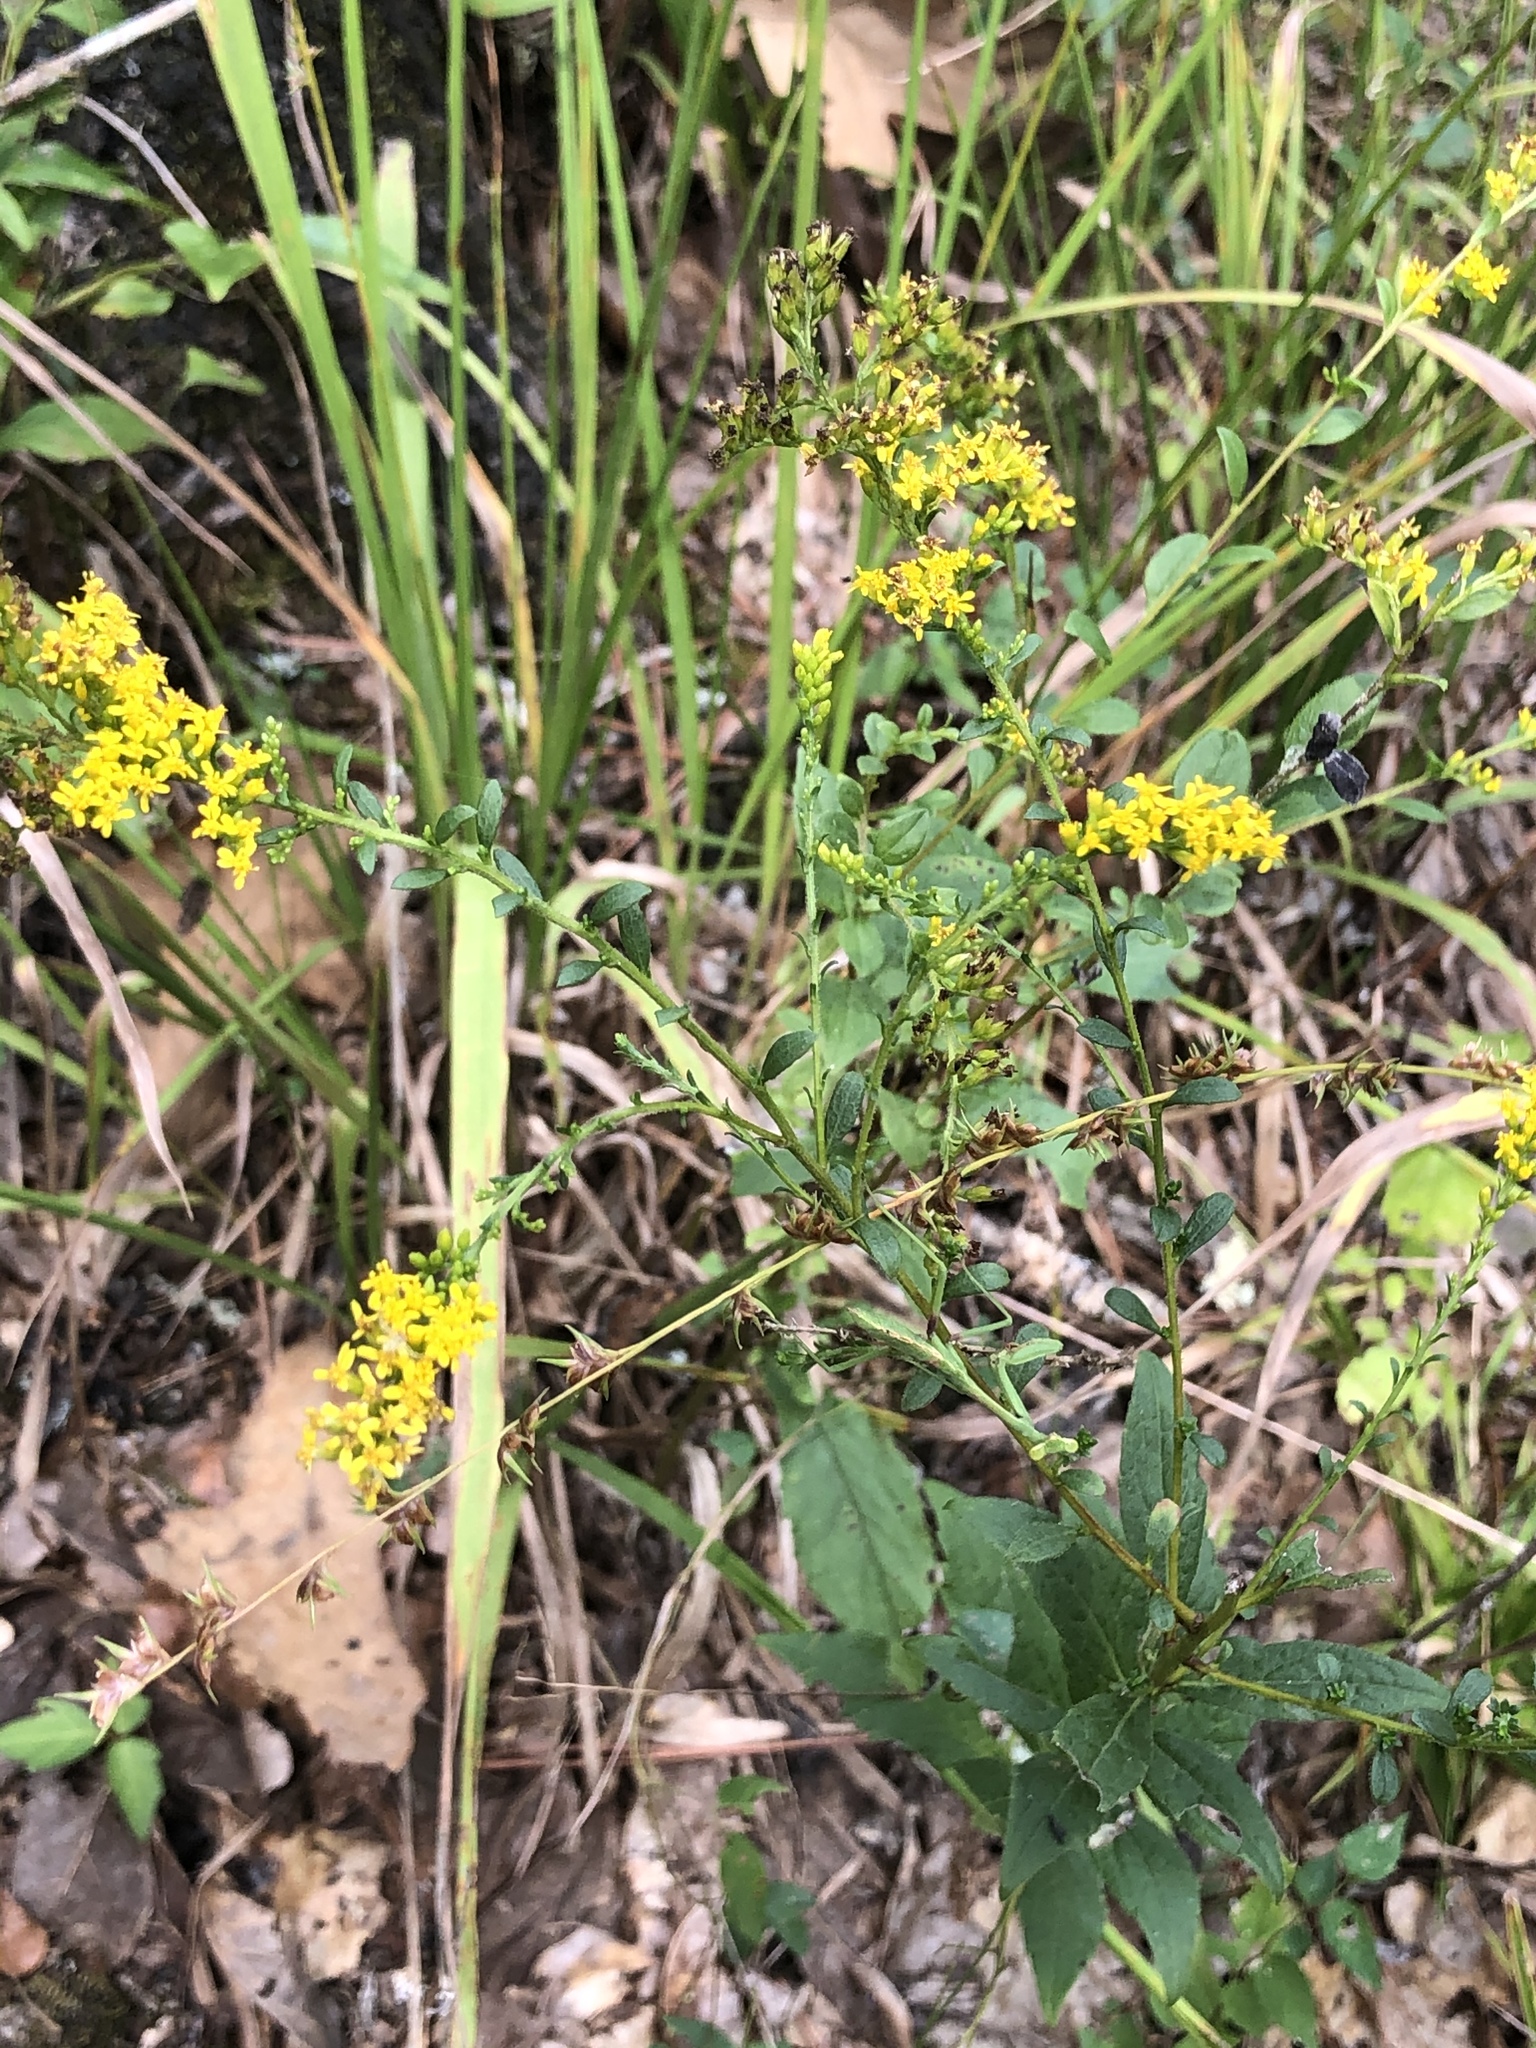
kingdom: Plantae
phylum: Tracheophyta
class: Magnoliopsida
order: Asterales
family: Asteraceae
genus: Solidago
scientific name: Solidago ulmifolia
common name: Elm-leaf goldenrod
